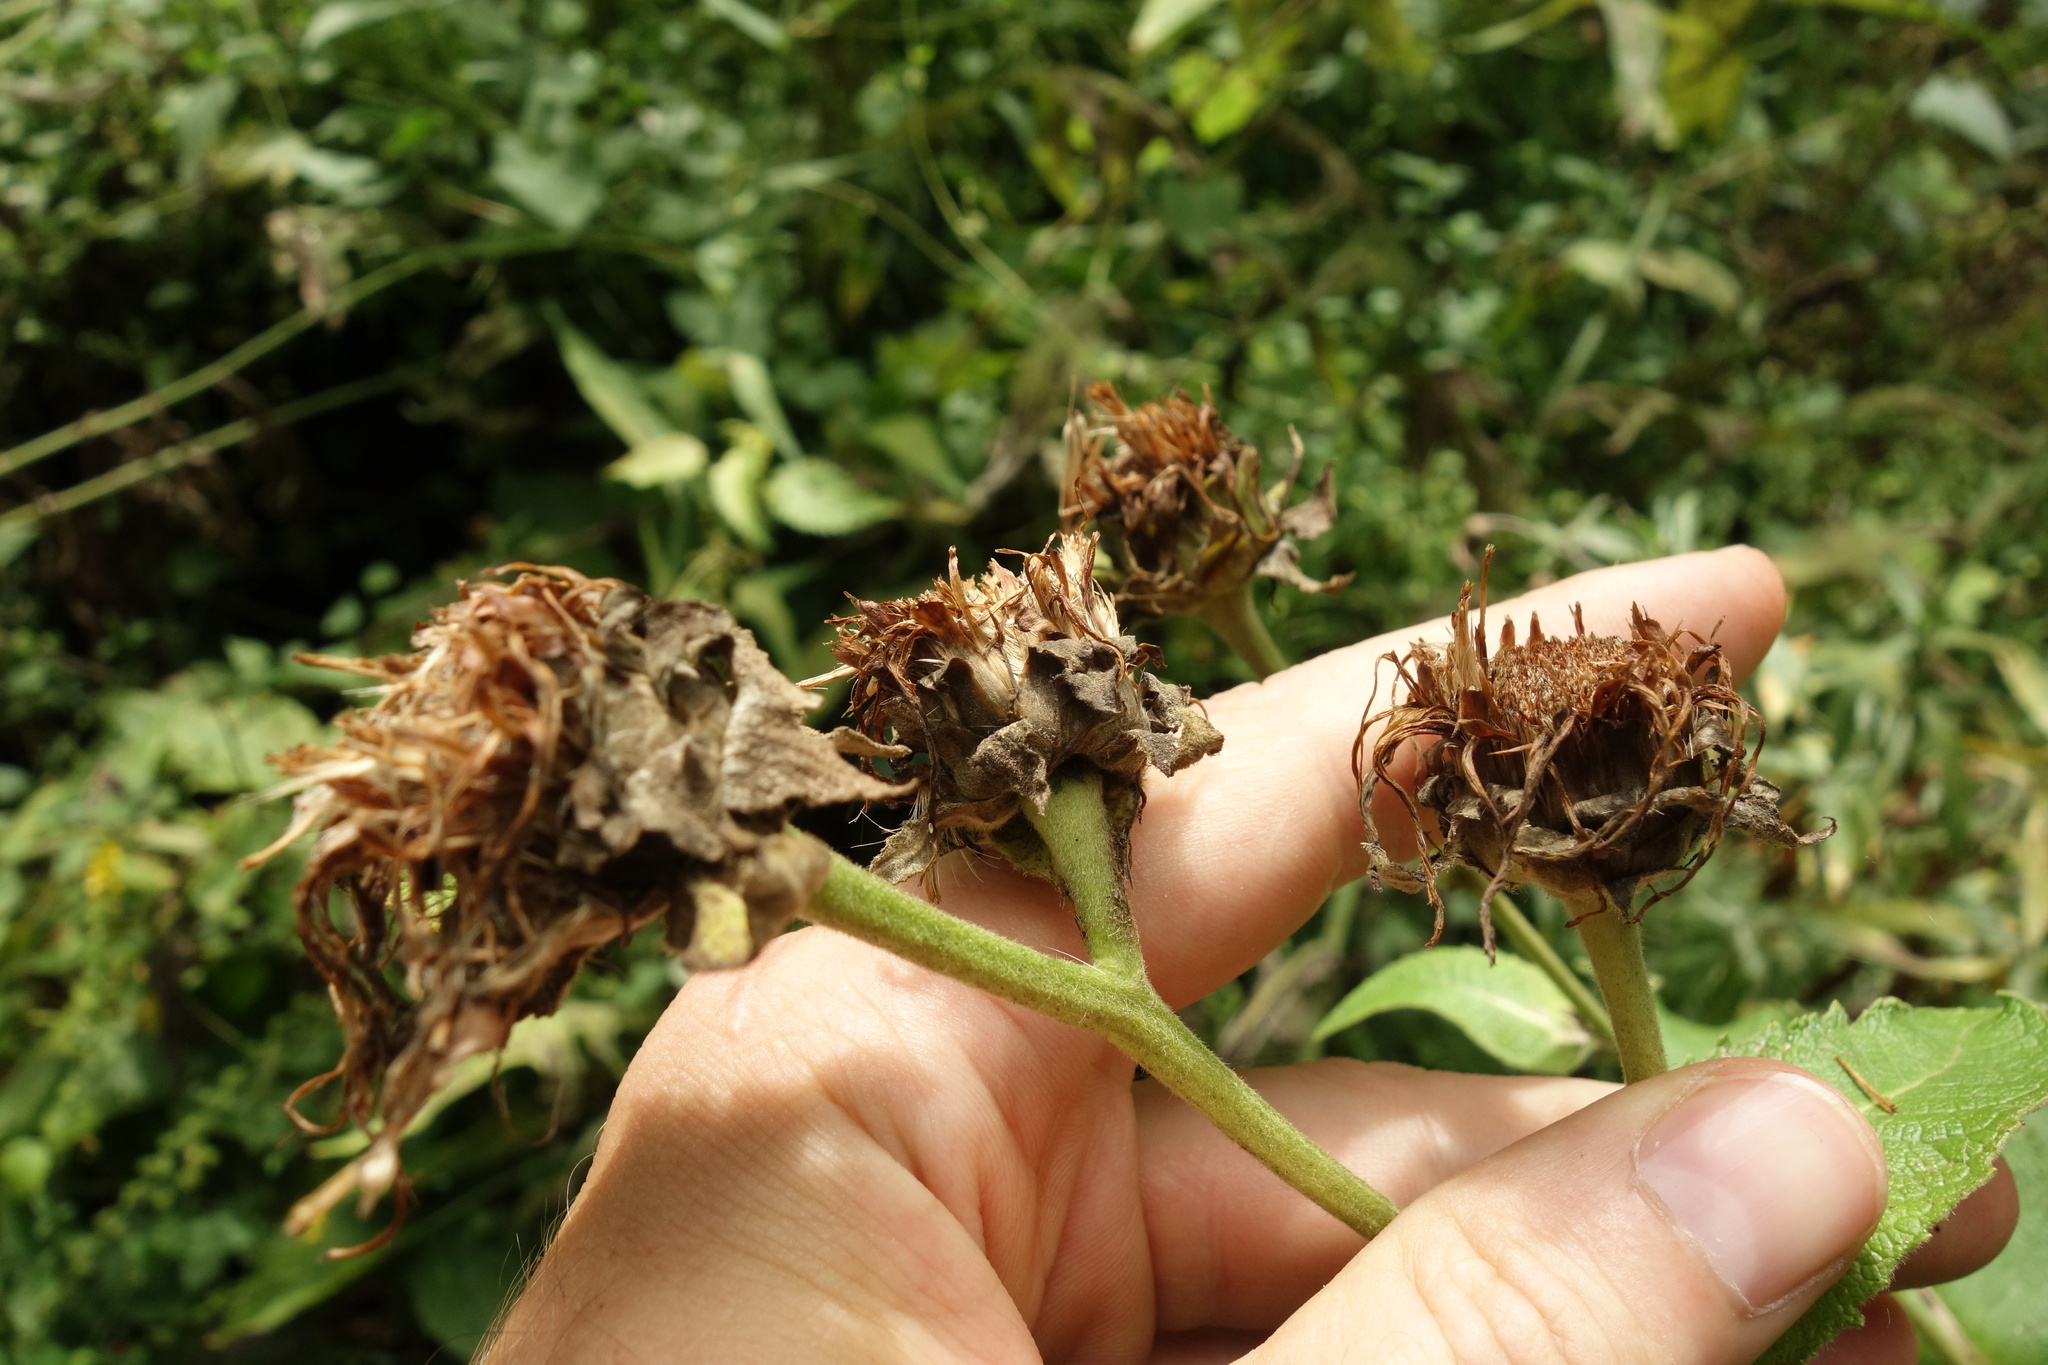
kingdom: Plantae
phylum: Tracheophyta
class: Magnoliopsida
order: Asterales
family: Asteraceae
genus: Inula
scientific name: Inula helenium
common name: Elecampane
